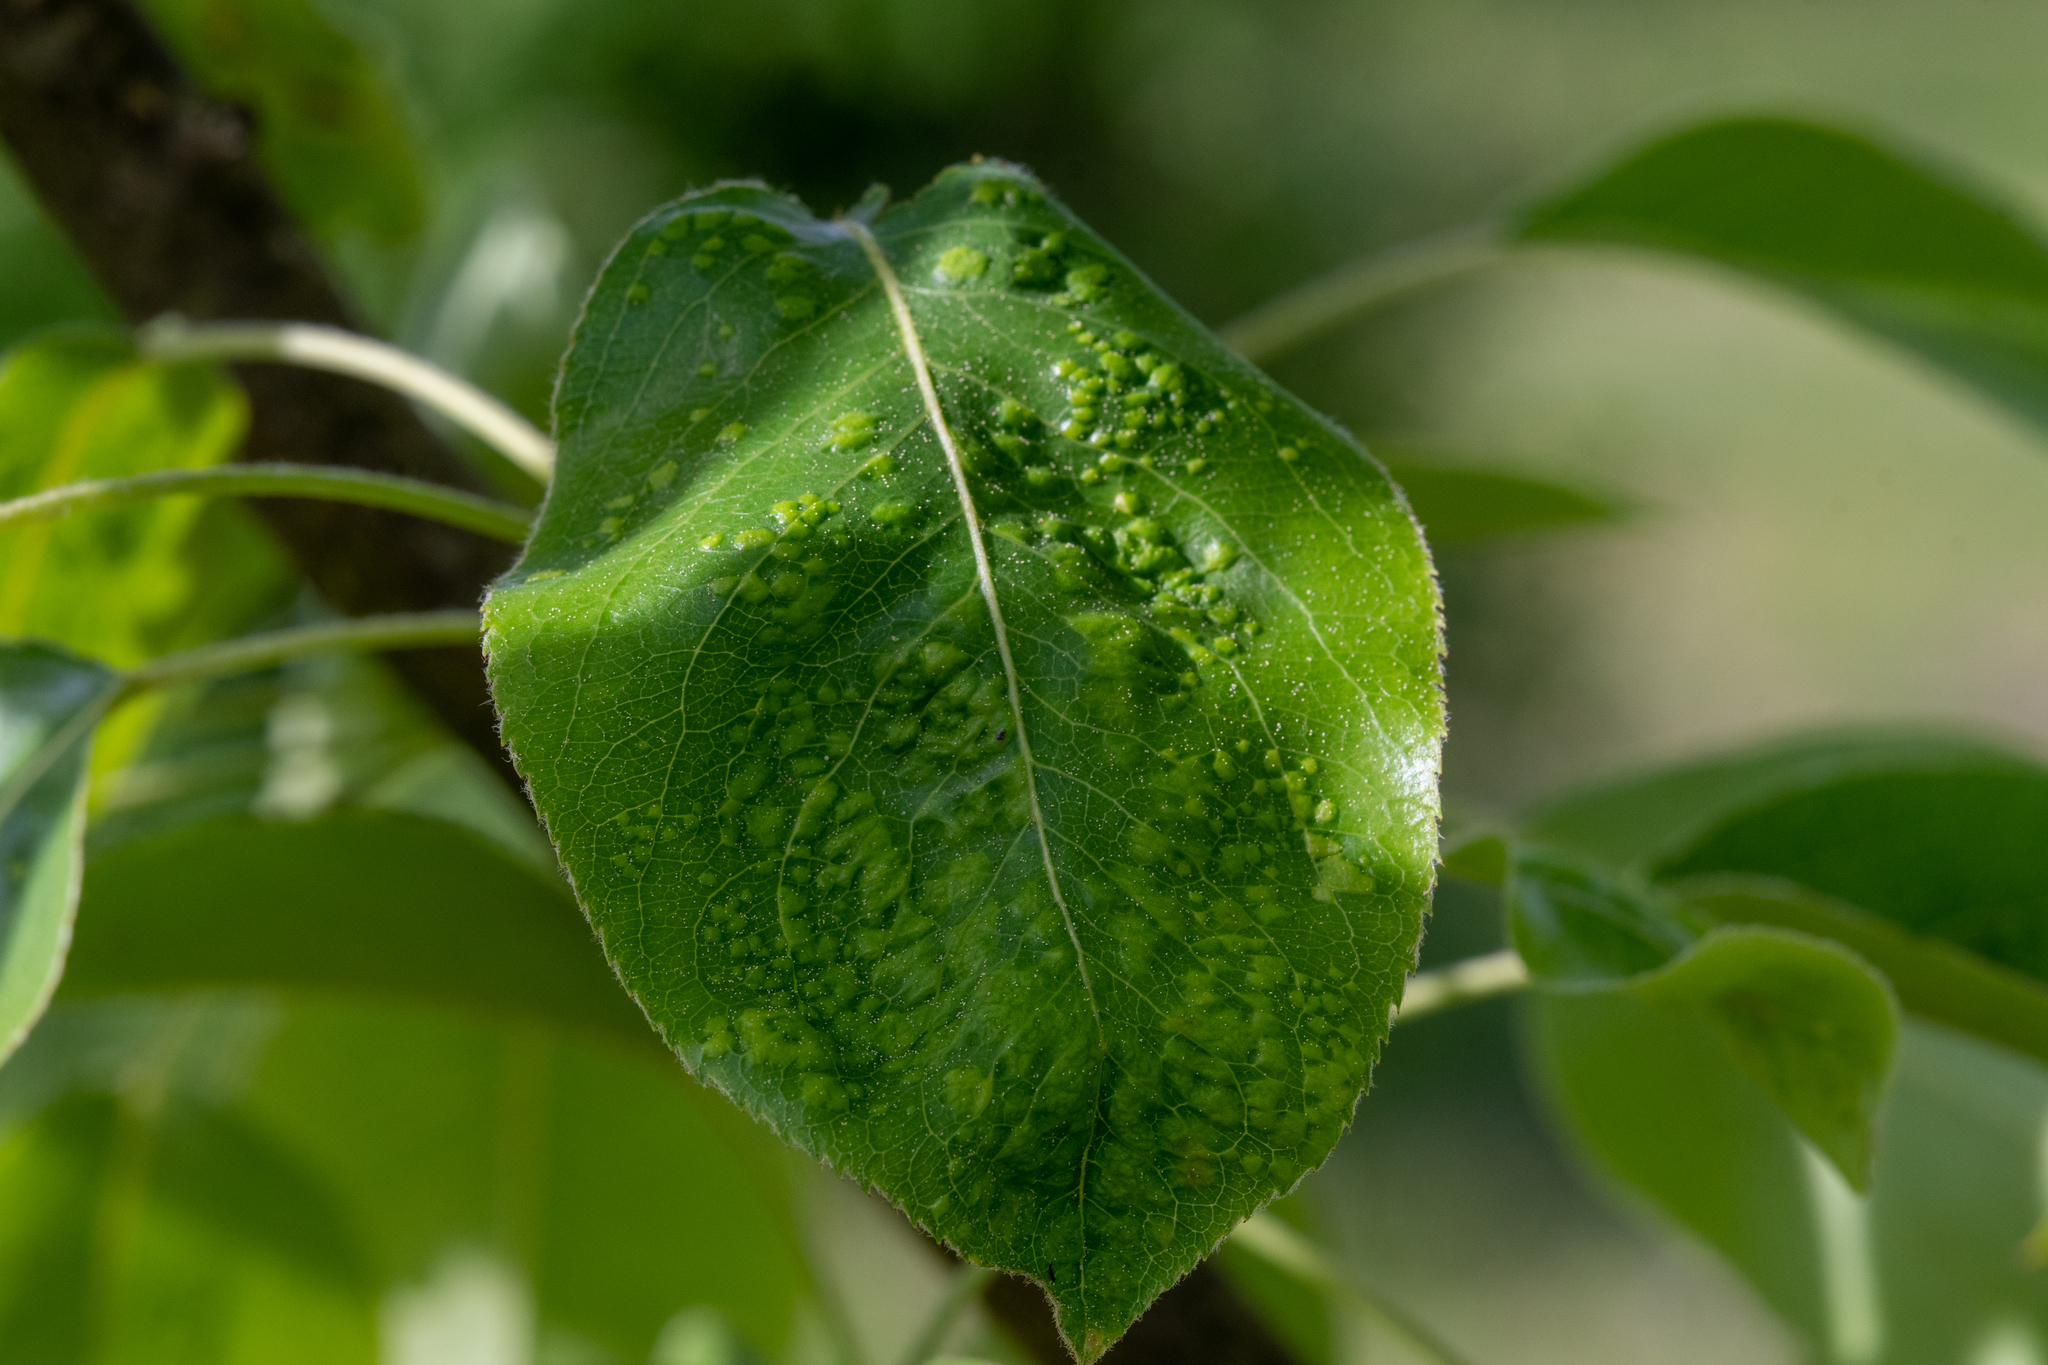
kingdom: Animalia
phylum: Arthropoda
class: Arachnida
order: Trombidiformes
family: Eriophyidae
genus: Eriophyes
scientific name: Eriophyes pyri
